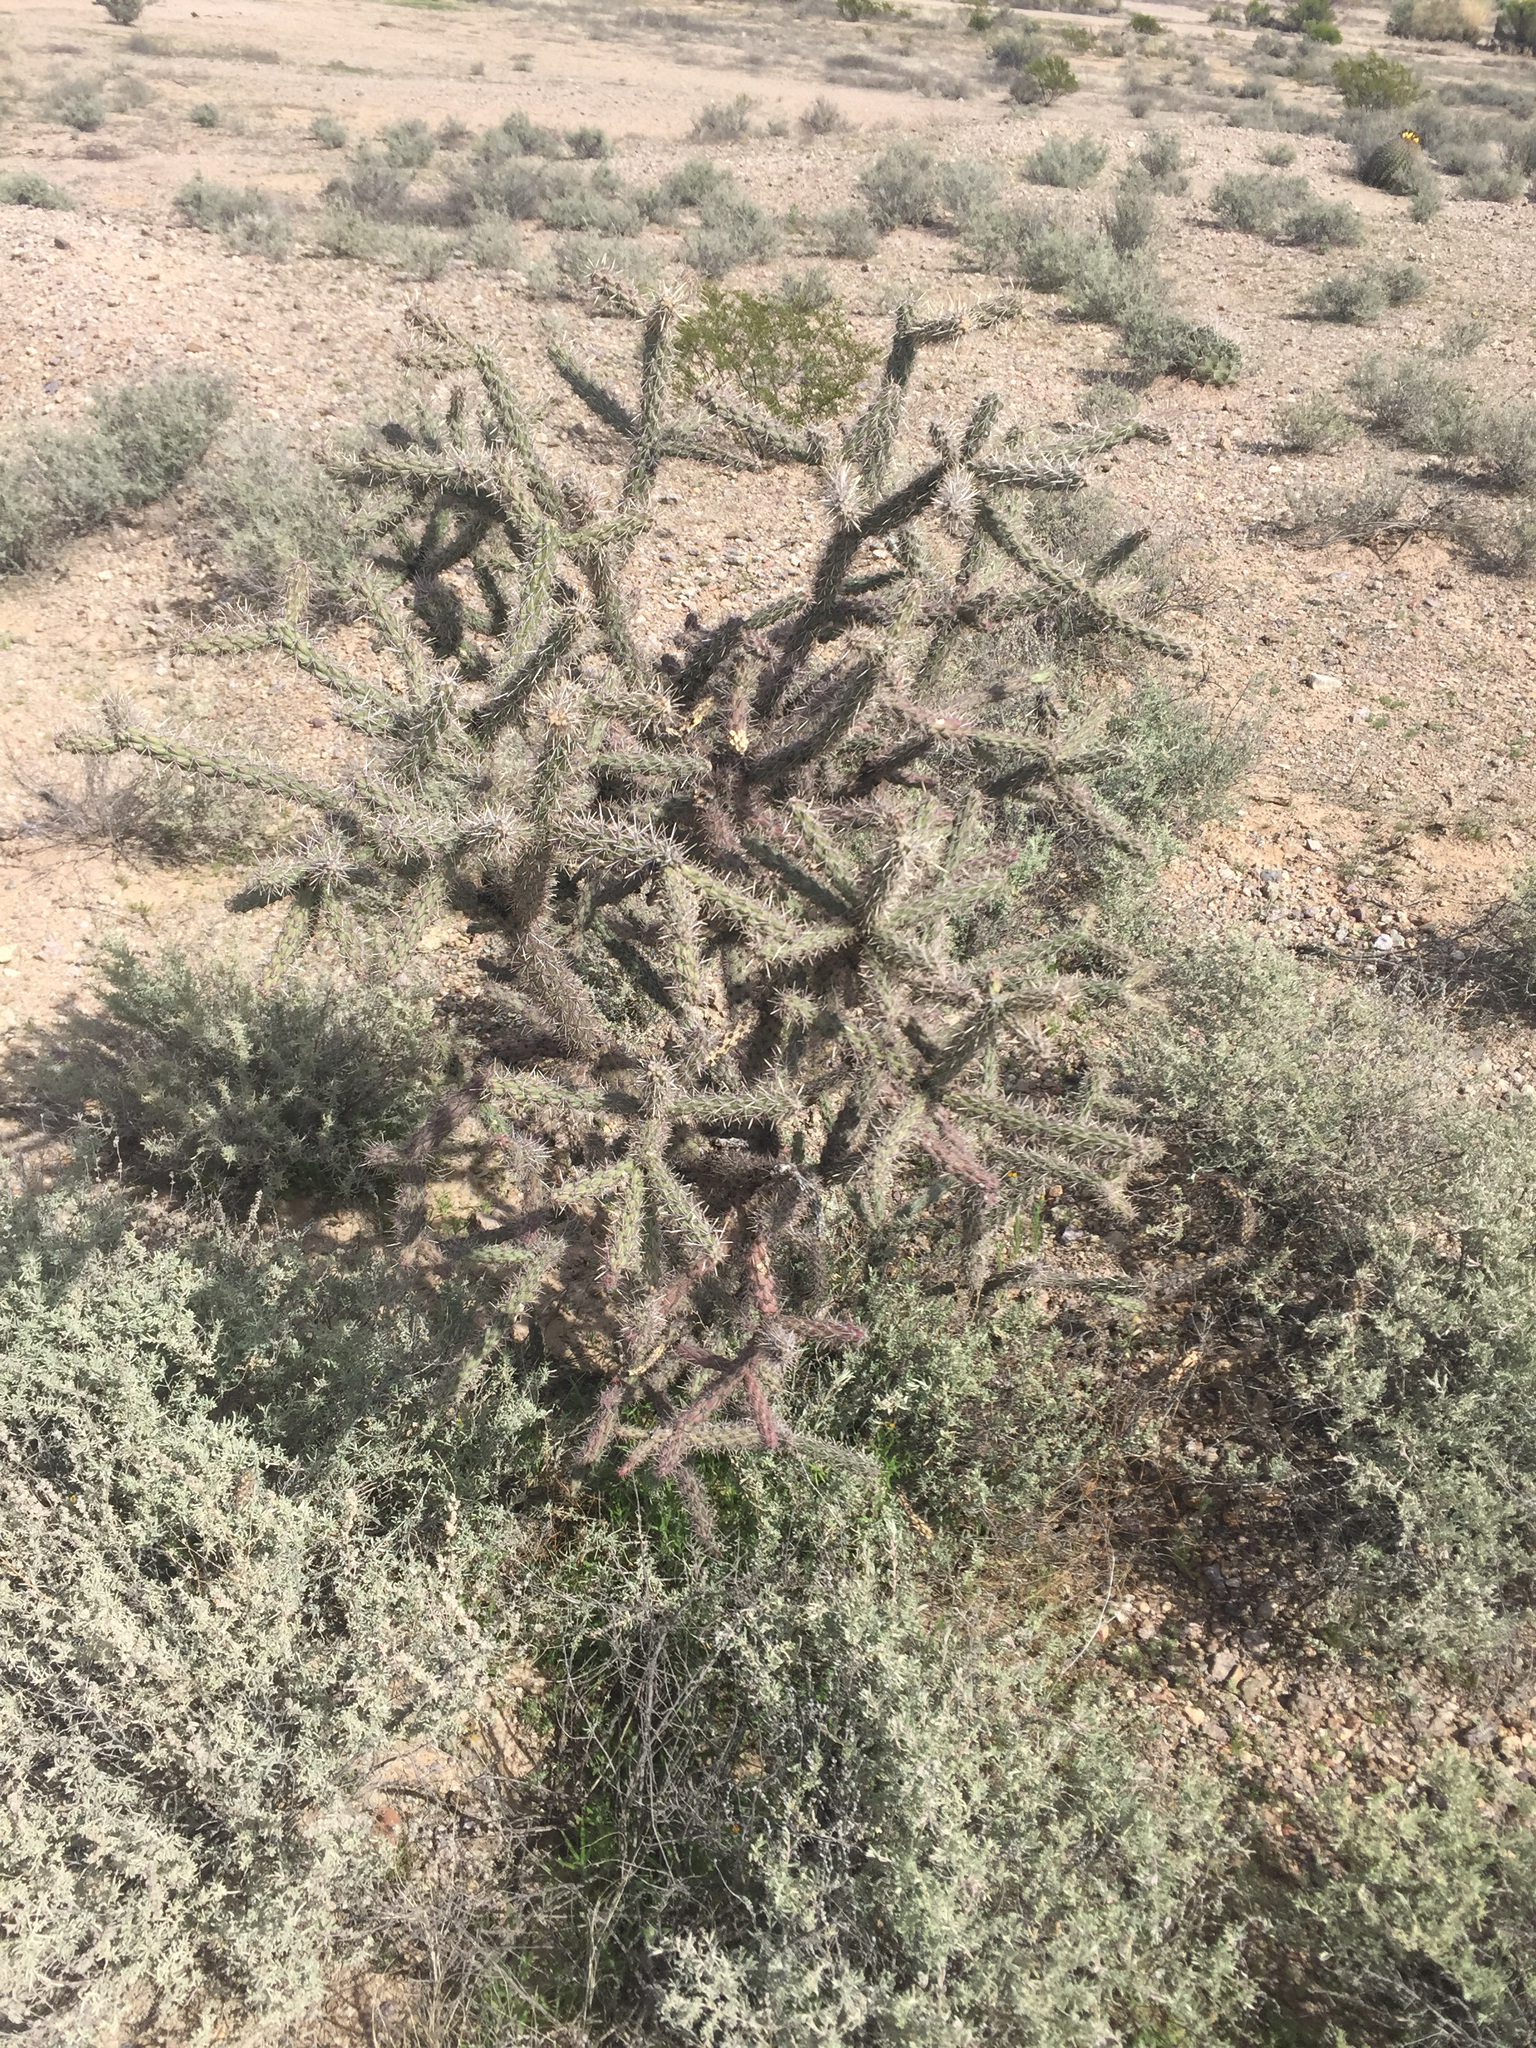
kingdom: Plantae
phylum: Tracheophyta
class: Magnoliopsida
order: Caryophyllales
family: Cactaceae
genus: Cylindropuntia
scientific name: Cylindropuntia imbricata
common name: Candelabrum cactus
